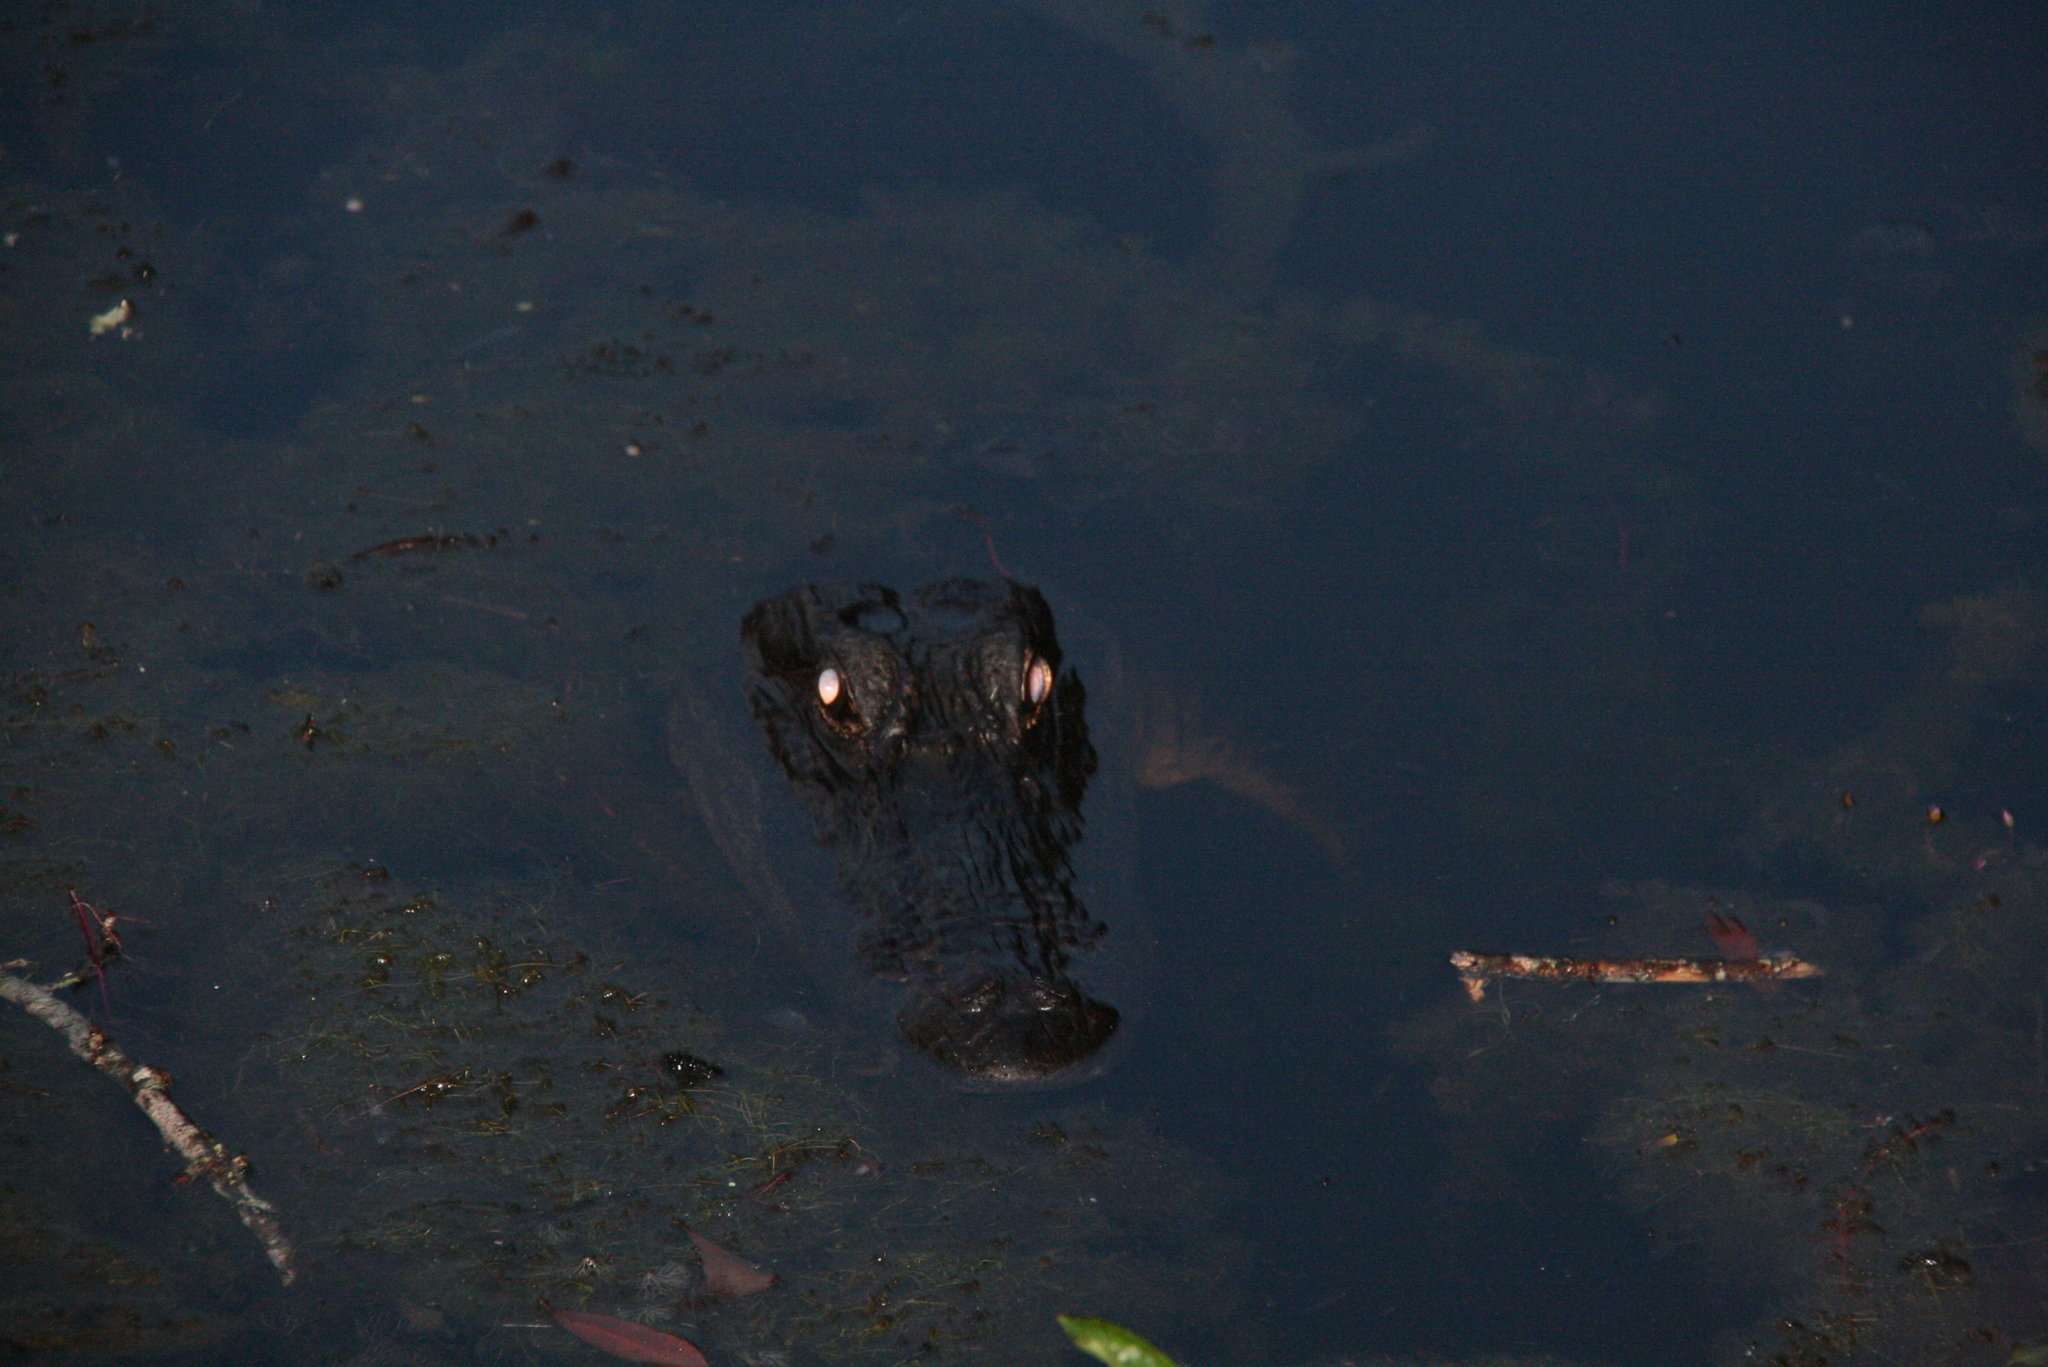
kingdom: Animalia
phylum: Chordata
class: Crocodylia
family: Alligatoridae
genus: Alligator
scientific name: Alligator mississippiensis
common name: American alligator
